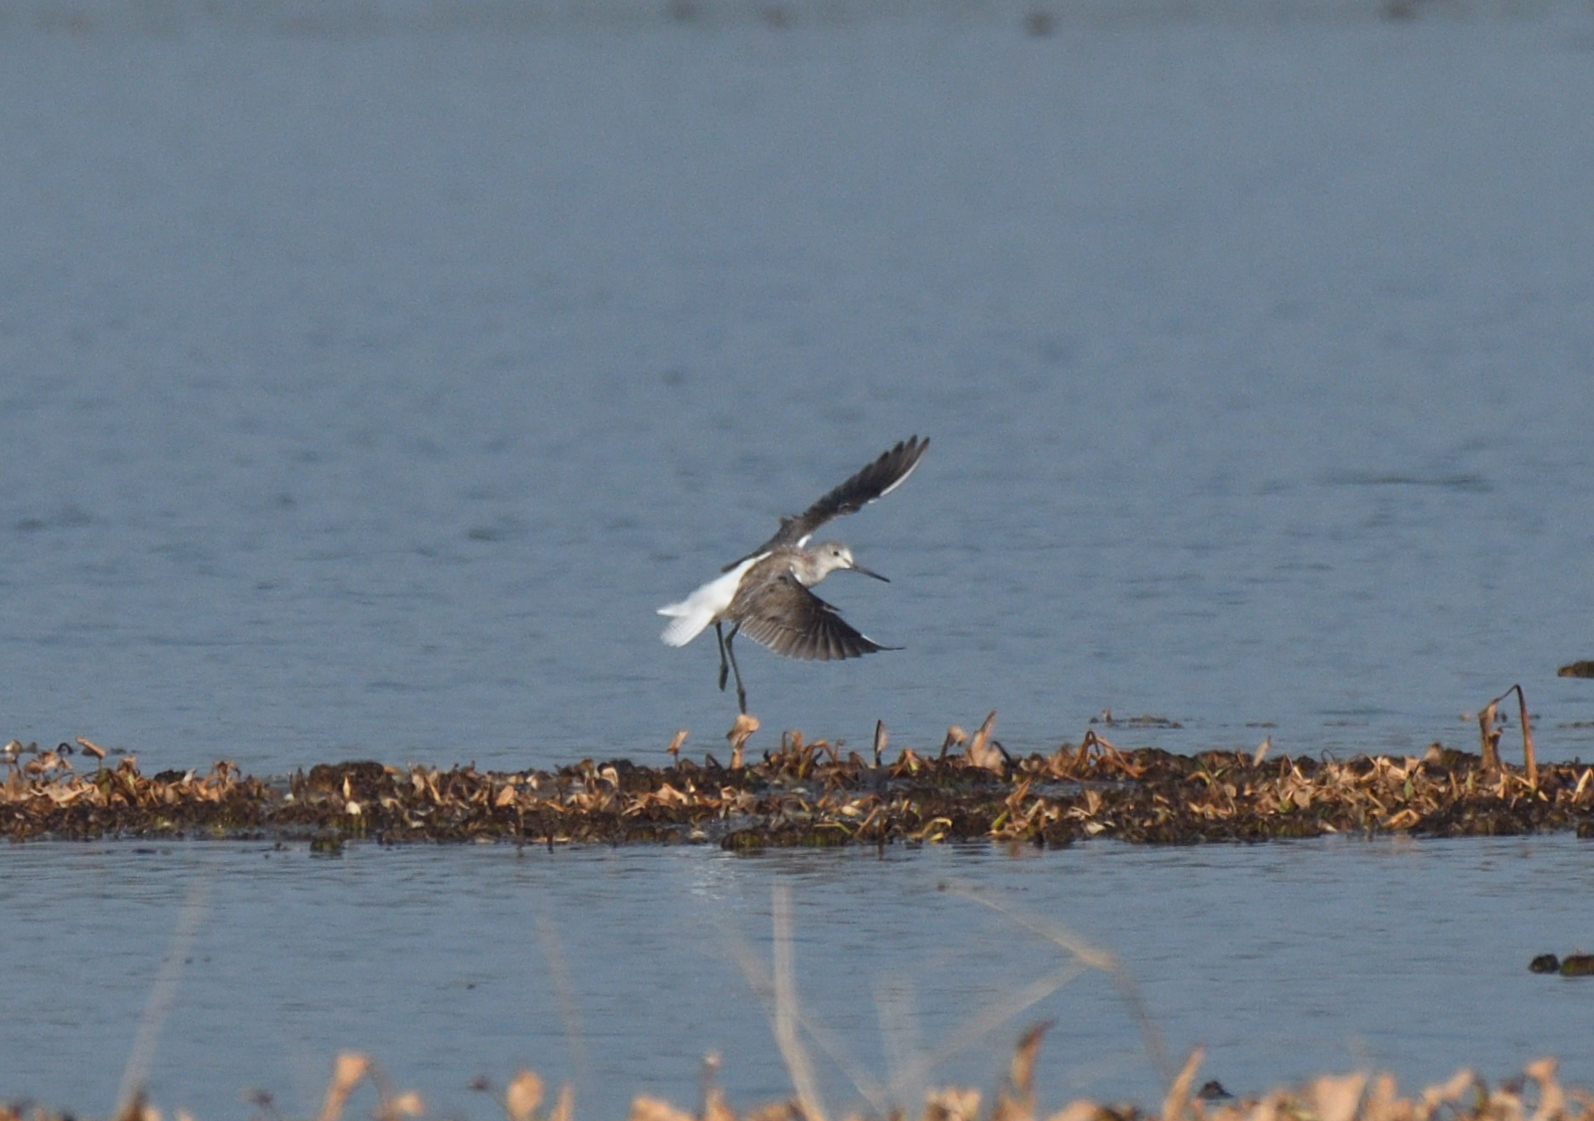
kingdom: Animalia
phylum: Chordata
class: Aves
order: Charadriiformes
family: Scolopacidae
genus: Tringa
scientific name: Tringa nebularia
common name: Common greenshank
